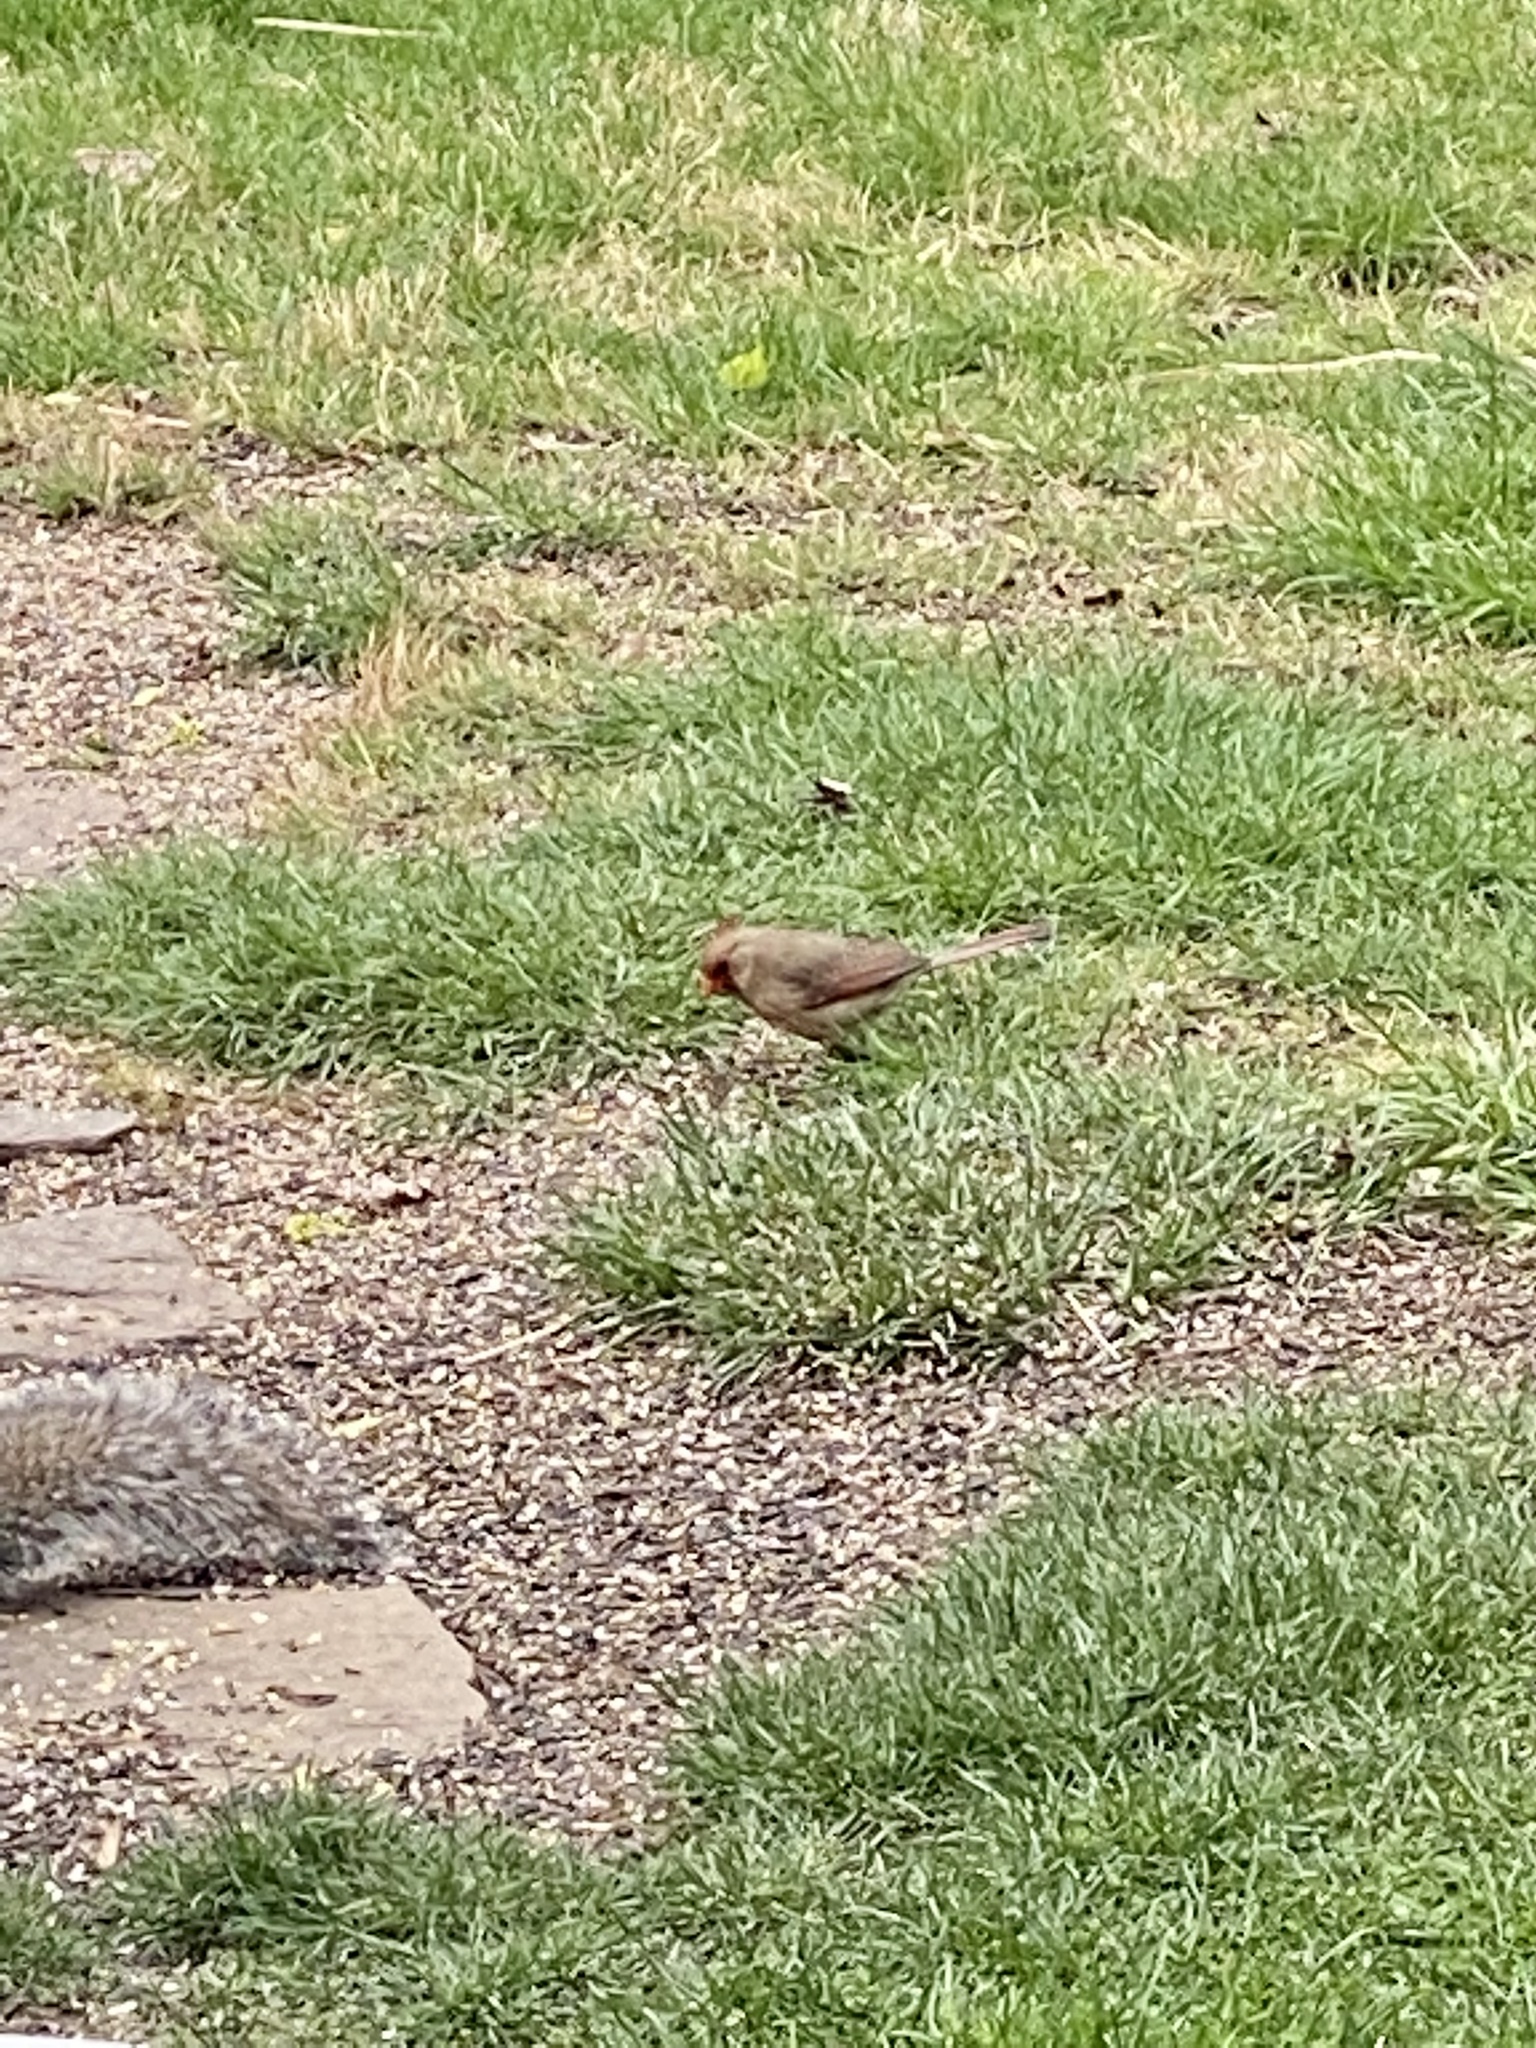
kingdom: Animalia
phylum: Chordata
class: Aves
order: Passeriformes
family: Cardinalidae
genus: Cardinalis
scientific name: Cardinalis cardinalis
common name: Northern cardinal
